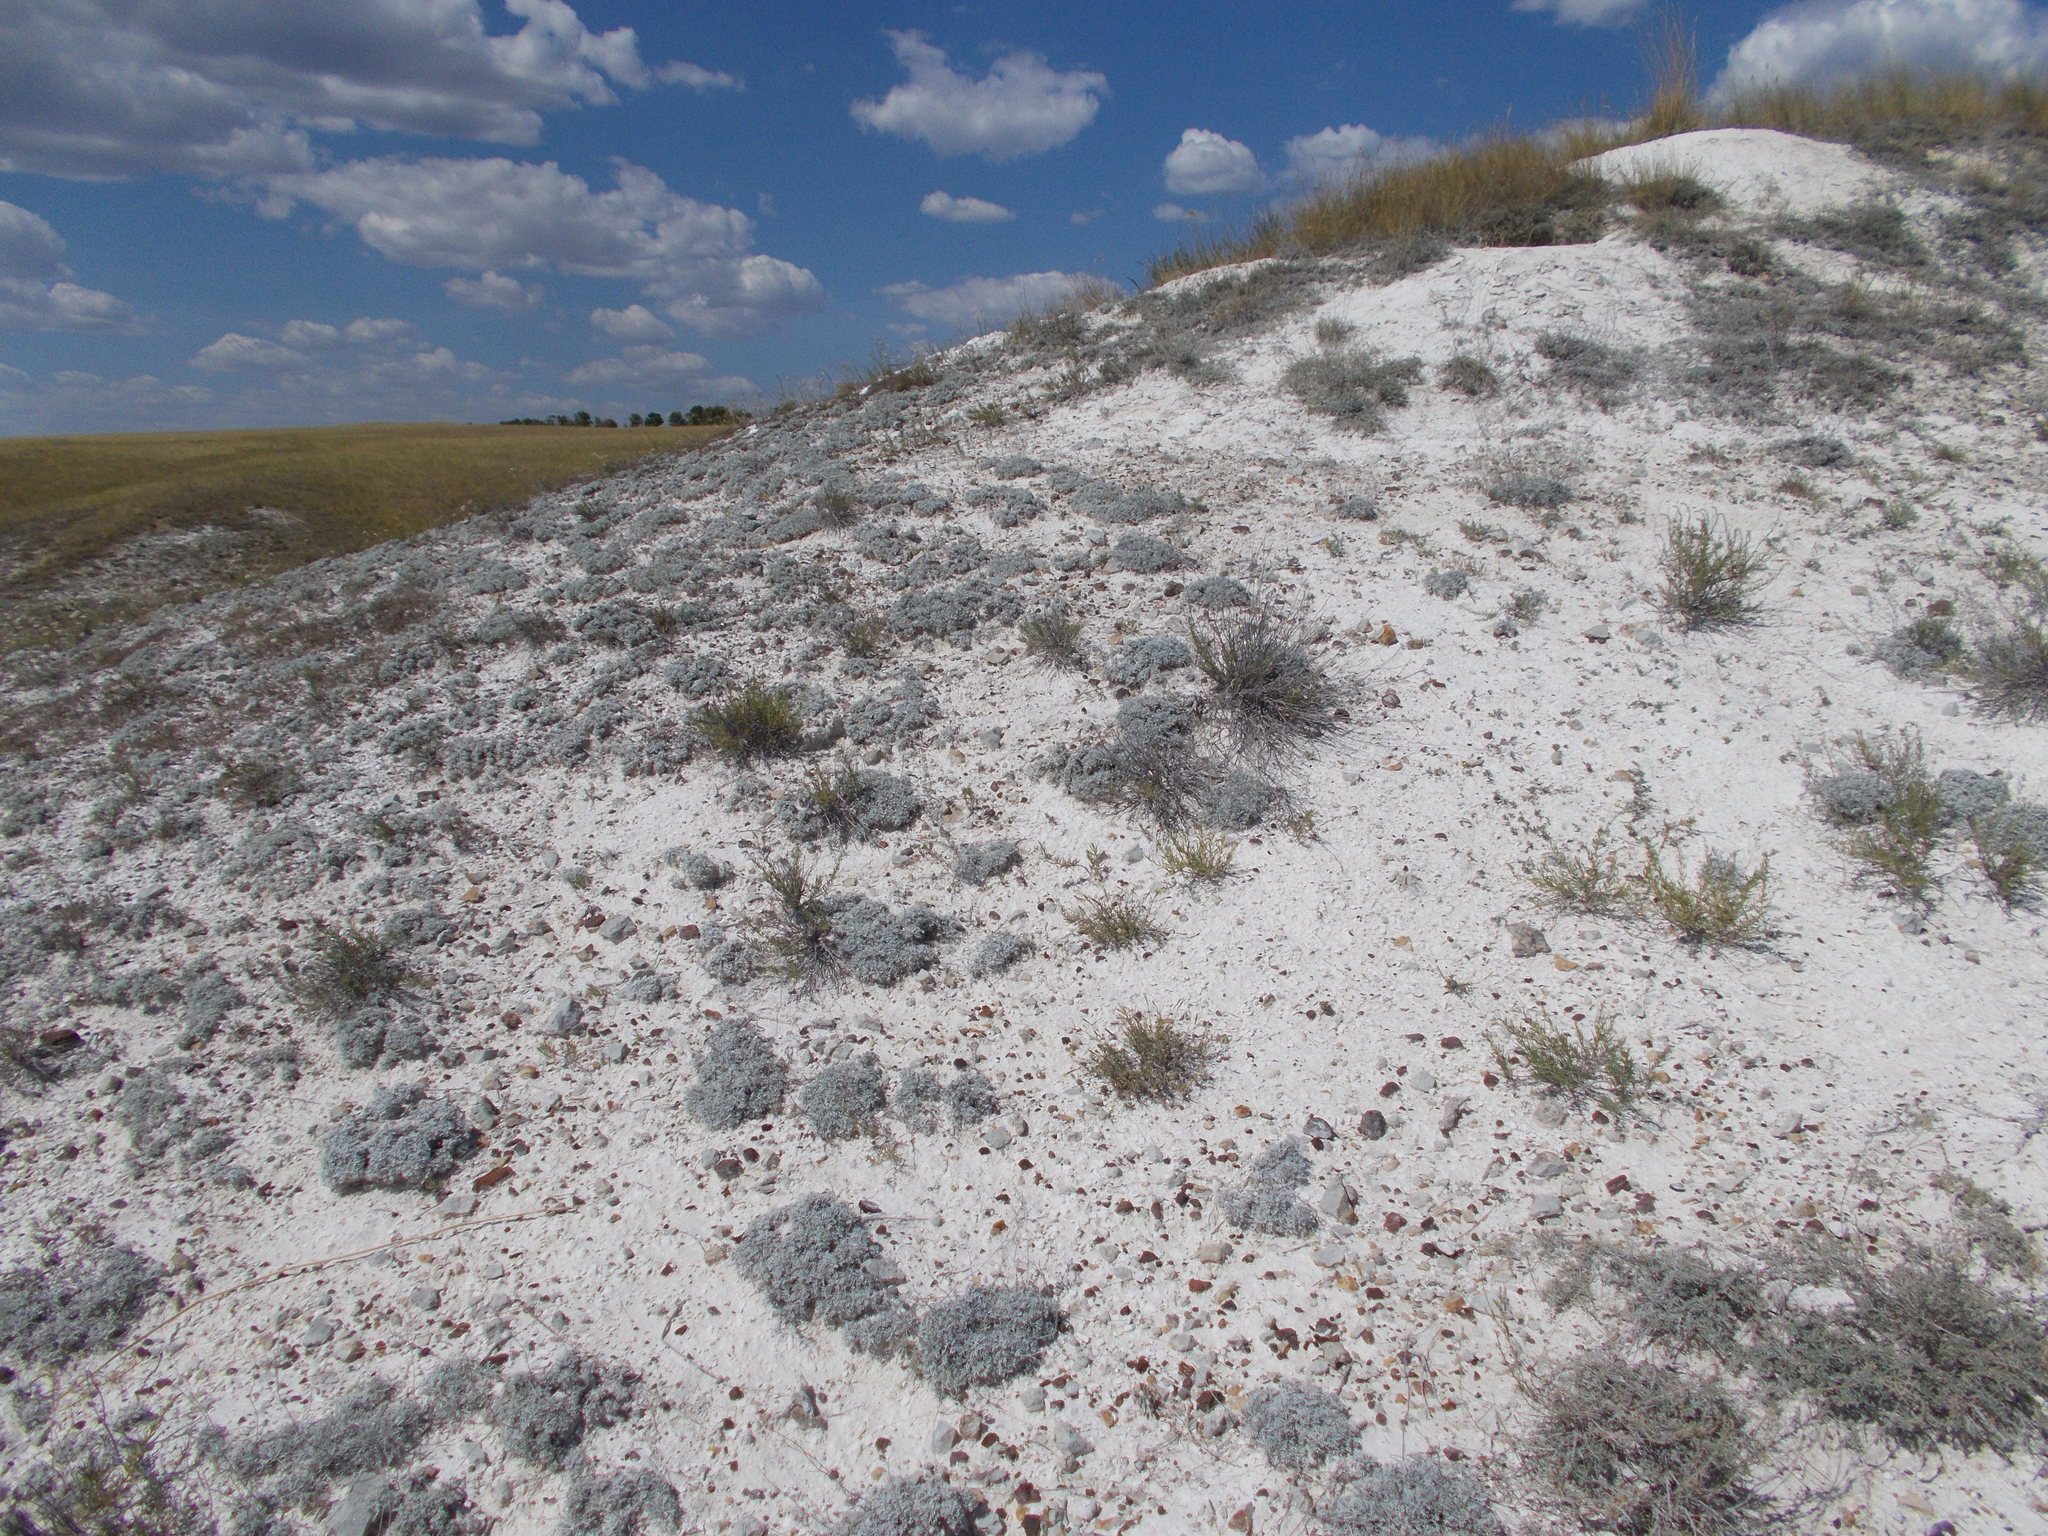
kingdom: Plantae
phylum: Tracheophyta
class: Magnoliopsida
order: Asterales
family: Asteraceae
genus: Artemisia
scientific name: Artemisia hololeuca
